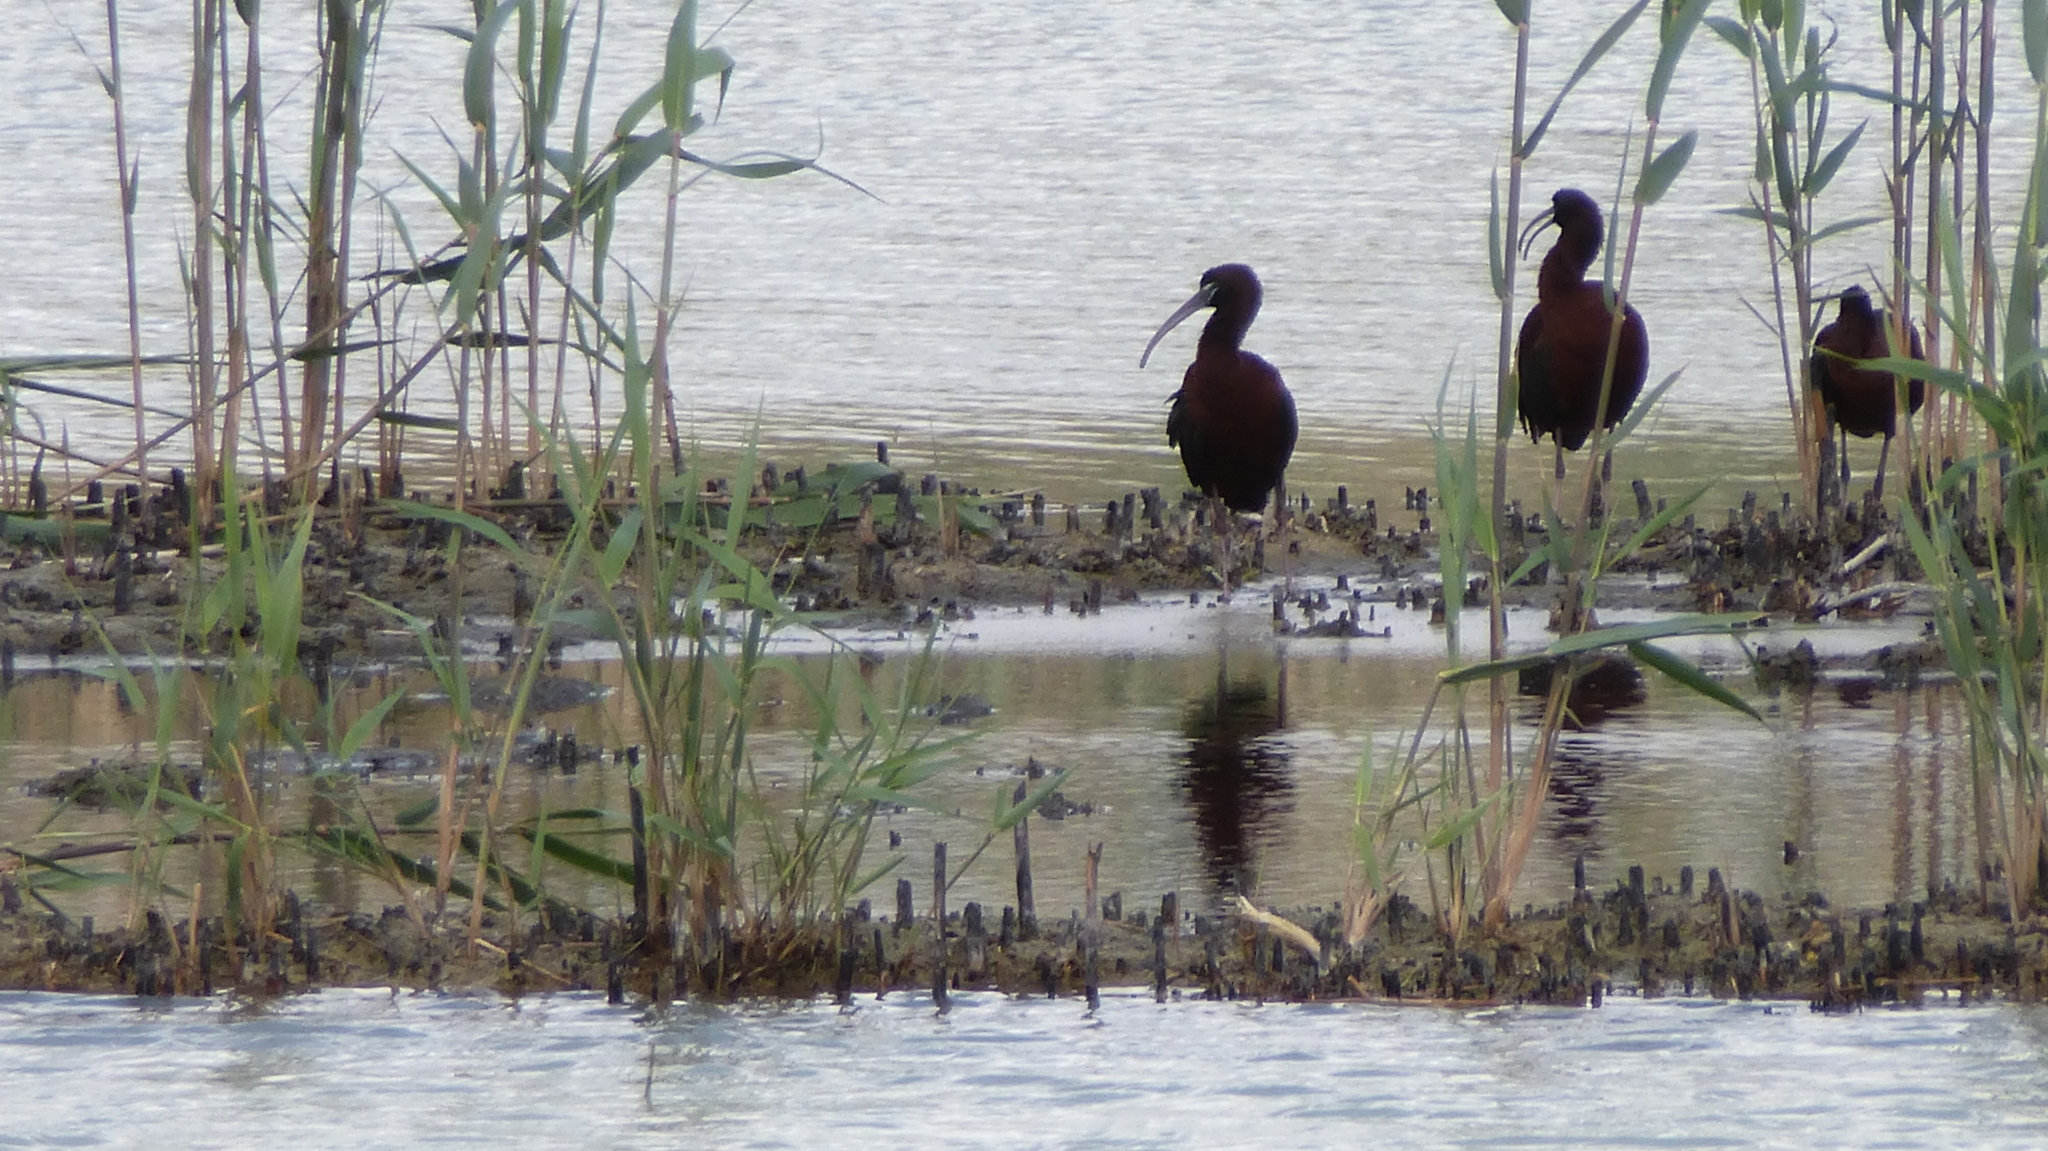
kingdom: Animalia
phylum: Chordata
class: Aves
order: Pelecaniformes
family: Threskiornithidae
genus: Plegadis
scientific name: Plegadis falcinellus
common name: Glossy ibis
